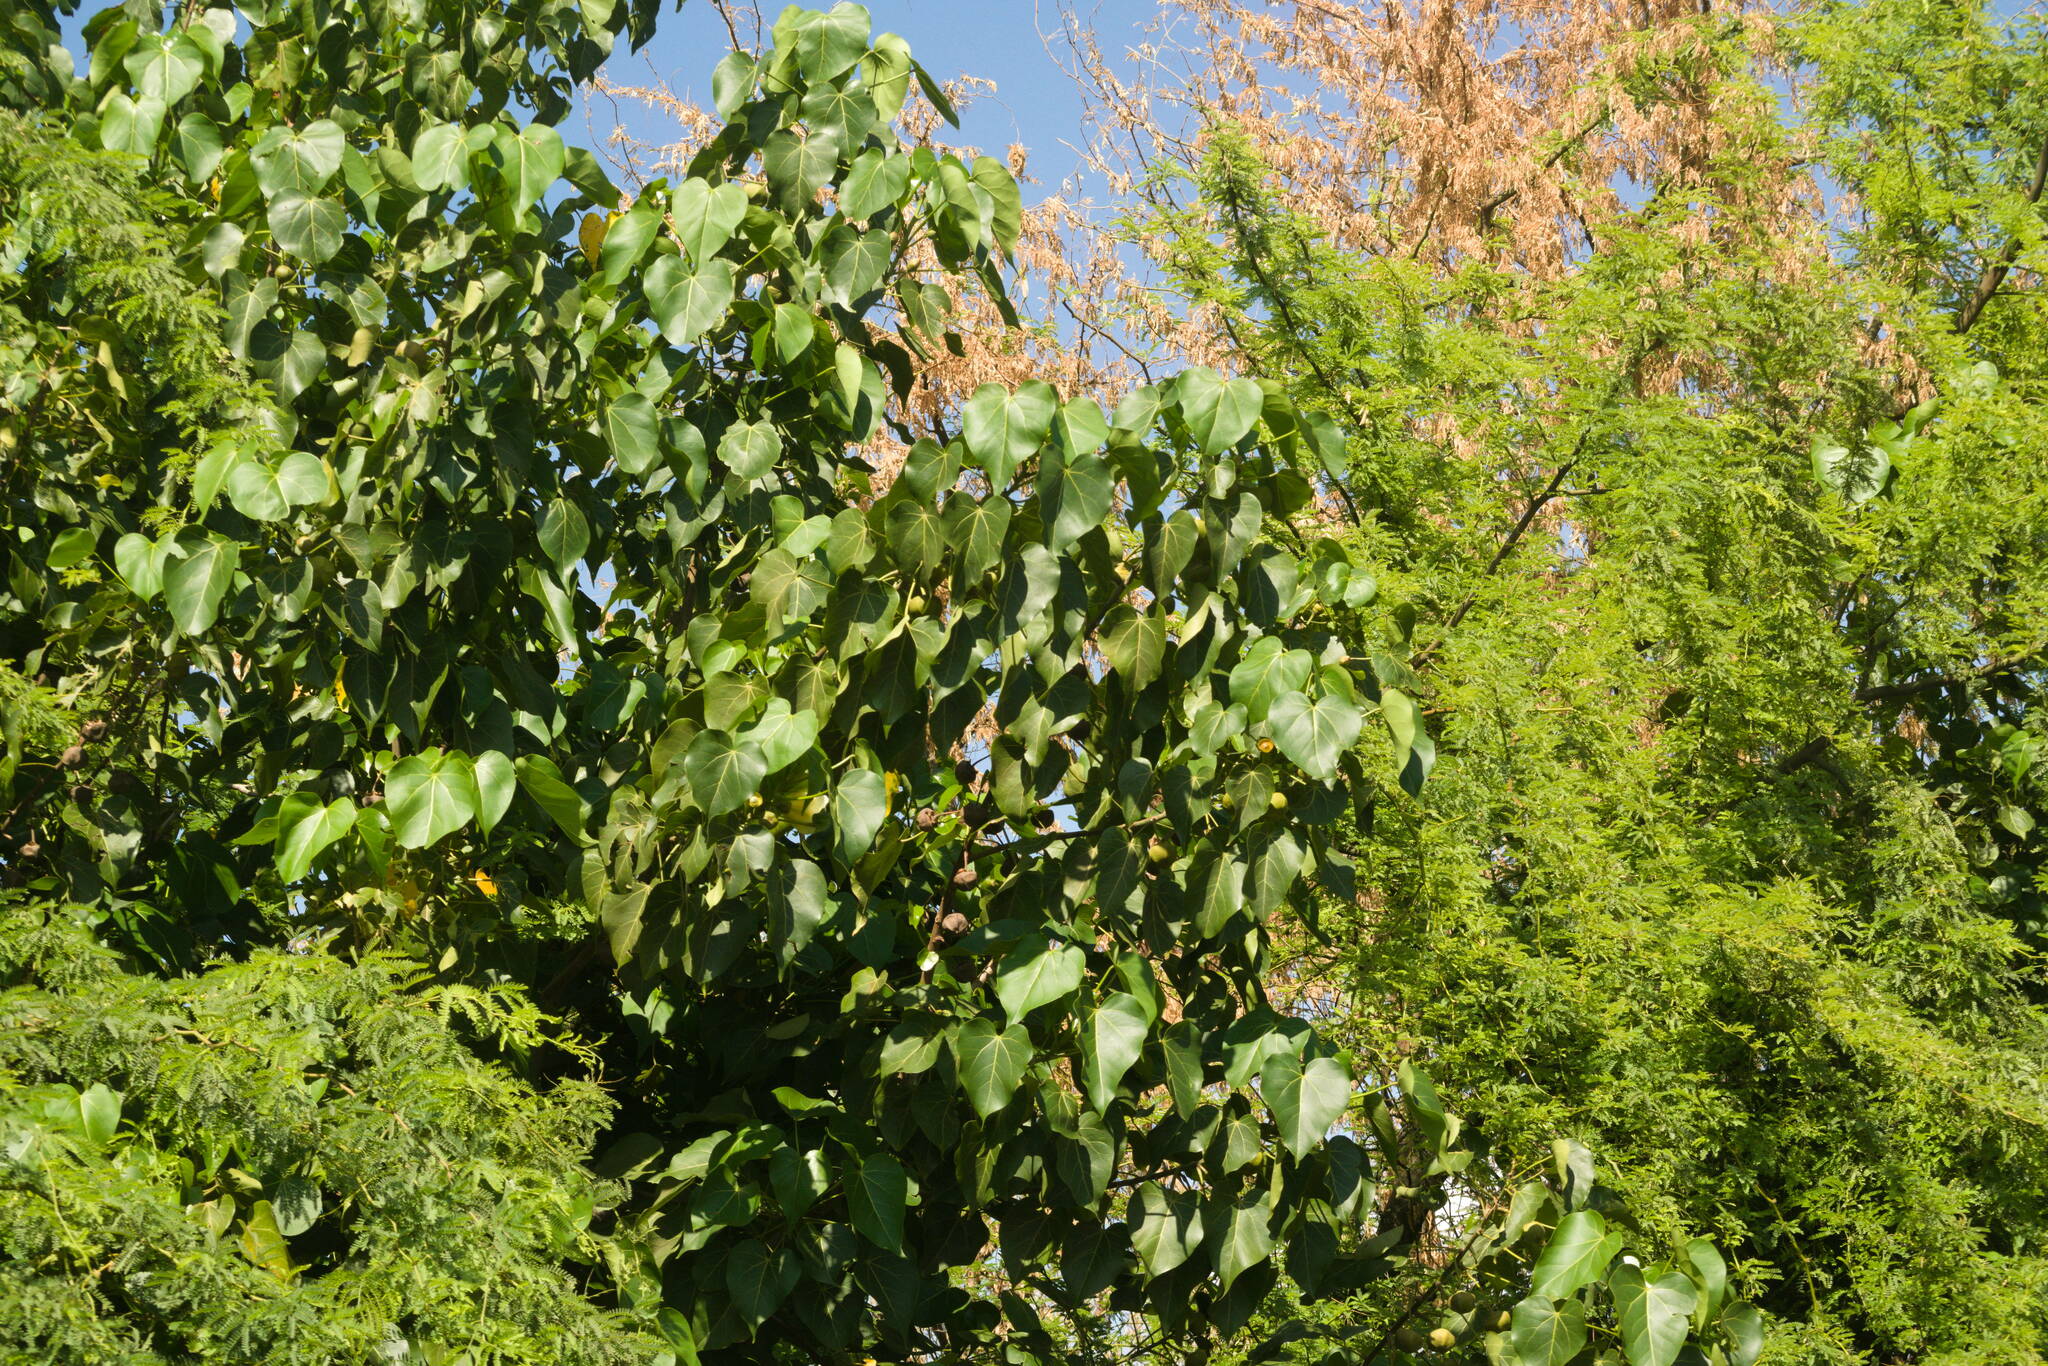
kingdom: Plantae
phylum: Tracheophyta
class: Magnoliopsida
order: Malvales
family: Malvaceae
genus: Thespesia
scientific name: Thespesia populnea
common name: Seaside mahoe
